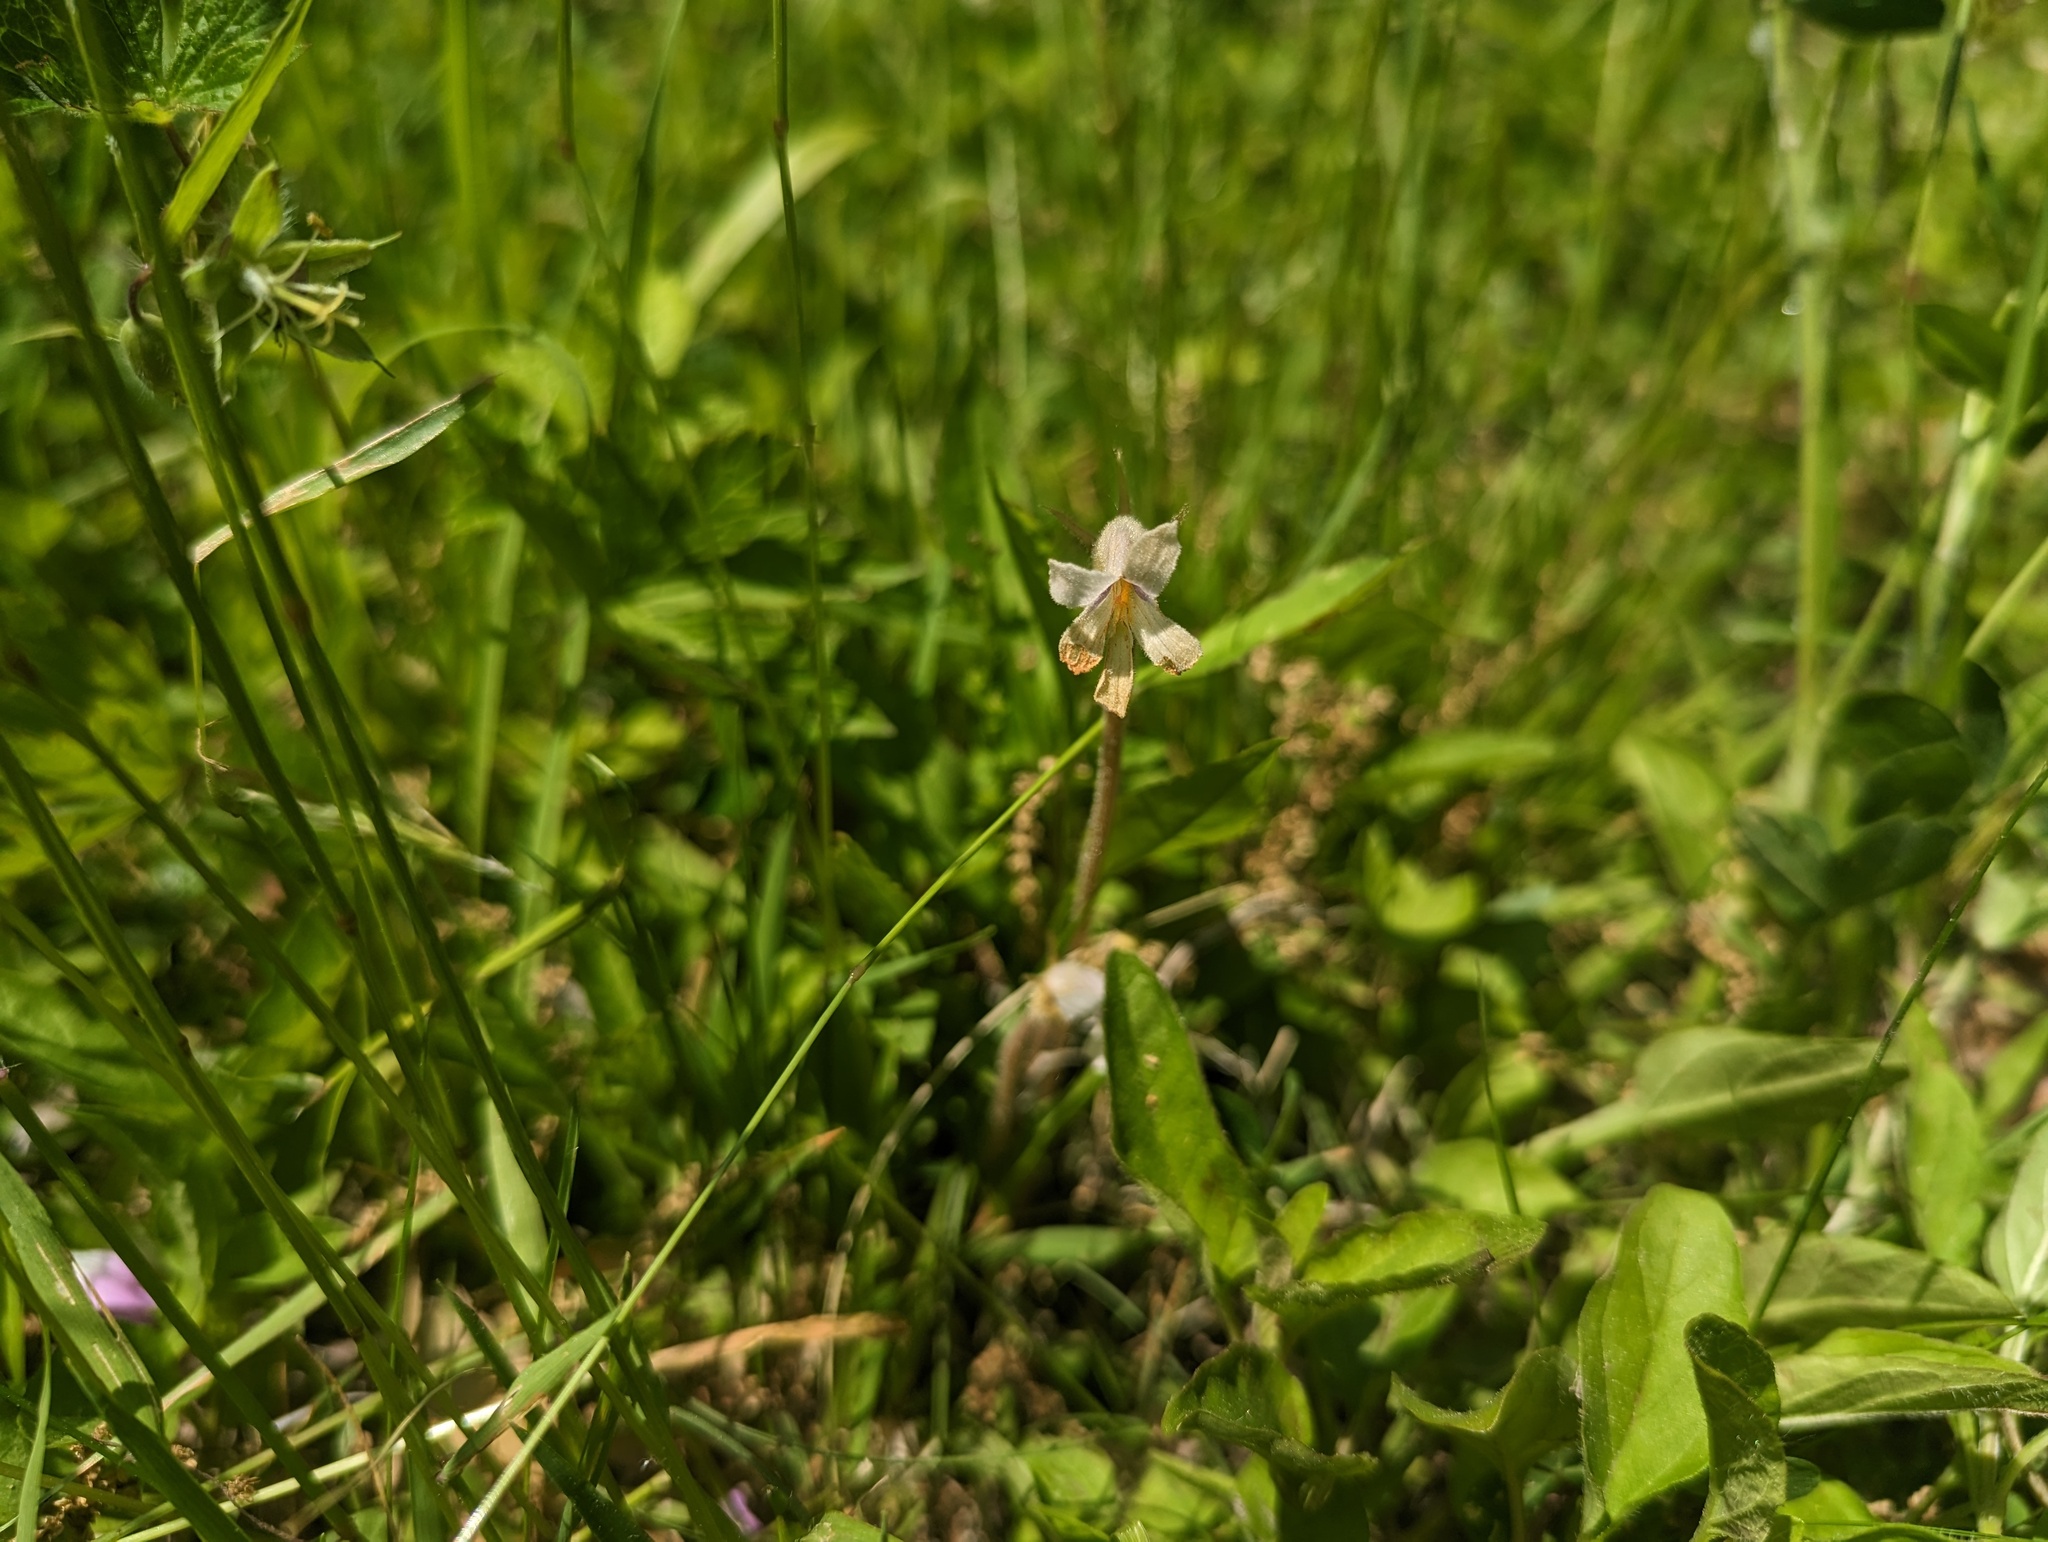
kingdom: Plantae
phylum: Tracheophyta
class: Magnoliopsida
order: Lamiales
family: Orobanchaceae
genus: Aphyllon
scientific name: Aphyllon uniflorum
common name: One-flowered broomrape
